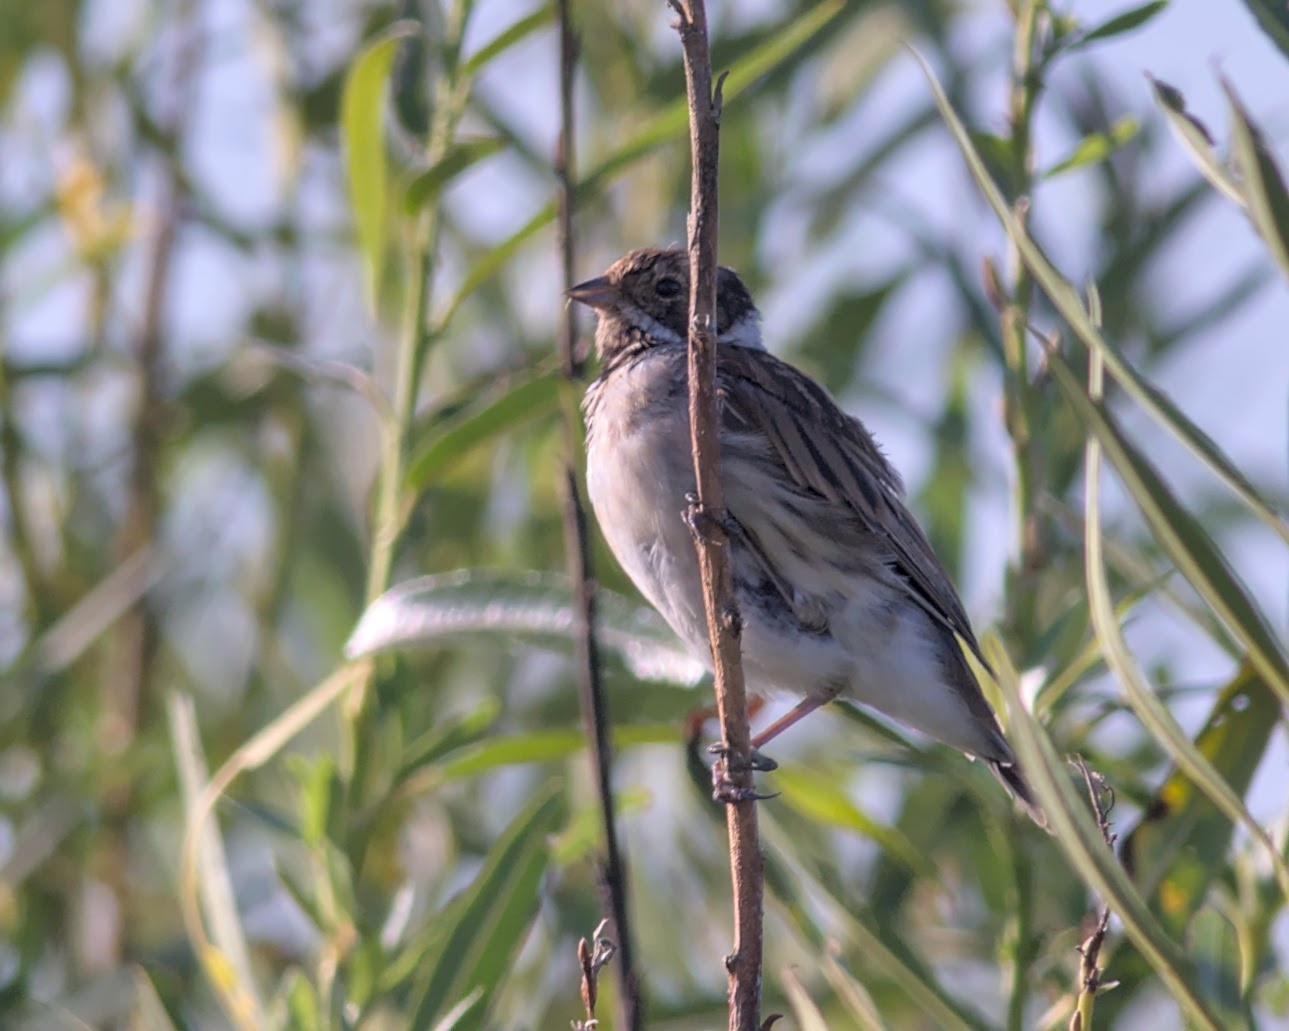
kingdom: Animalia
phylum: Chordata
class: Aves
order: Passeriformes
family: Emberizidae
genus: Emberiza
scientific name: Emberiza schoeniclus
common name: Reed bunting
